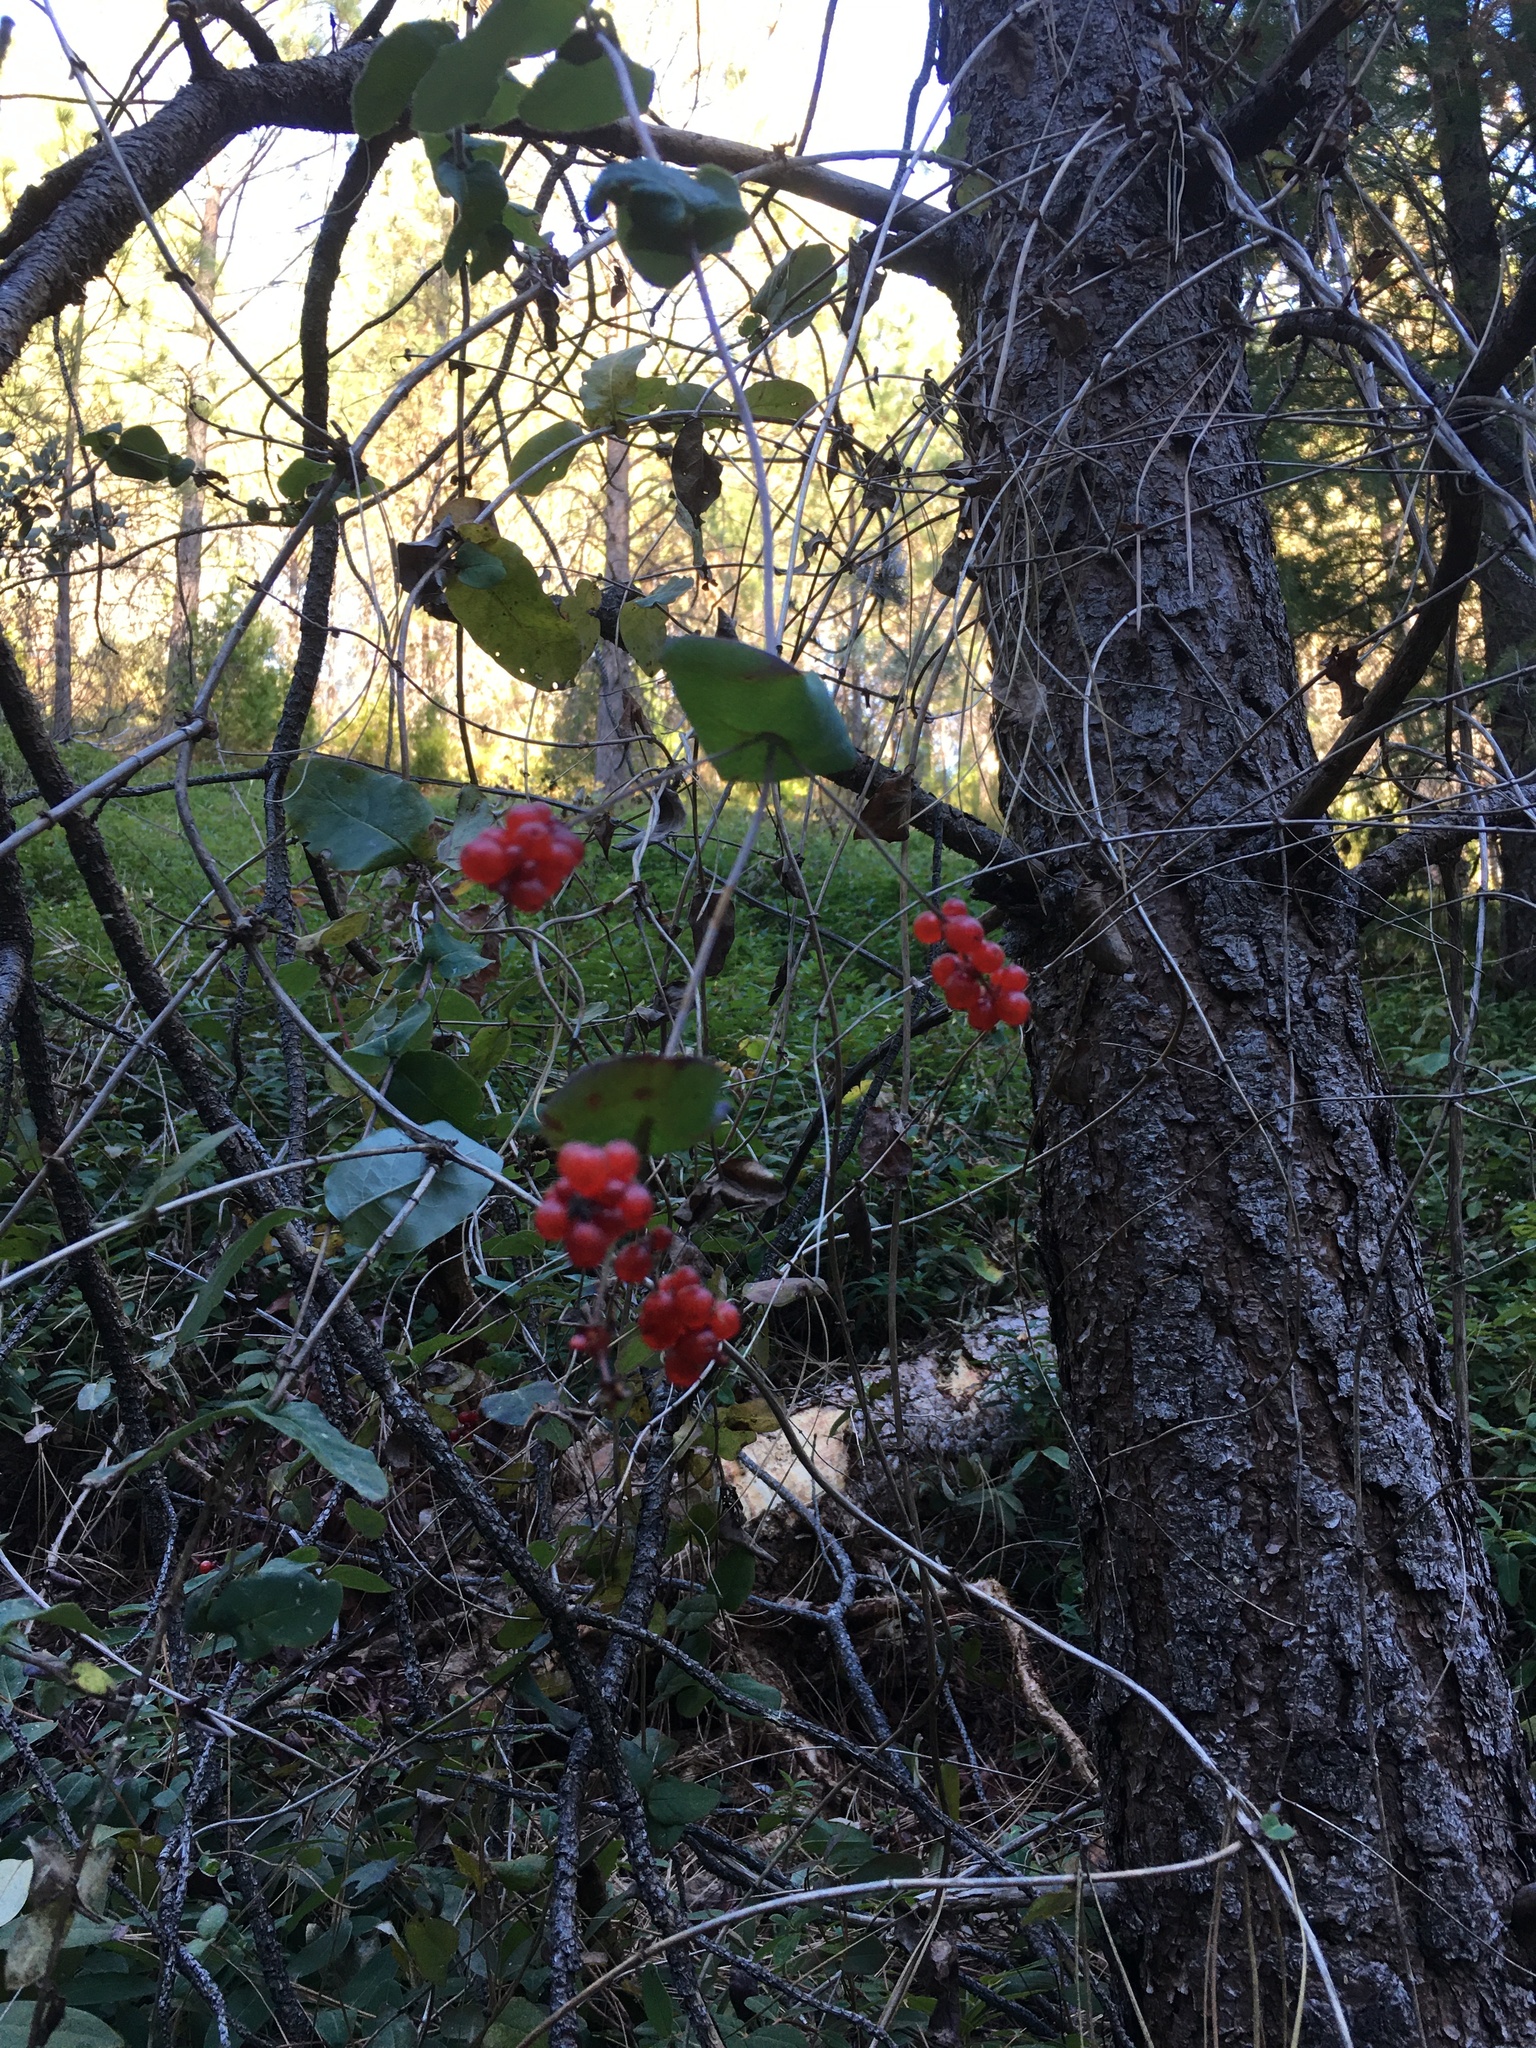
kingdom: Plantae
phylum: Tracheophyta
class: Magnoliopsida
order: Dipsacales
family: Caprifoliaceae
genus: Lonicera
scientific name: Lonicera hispidula
